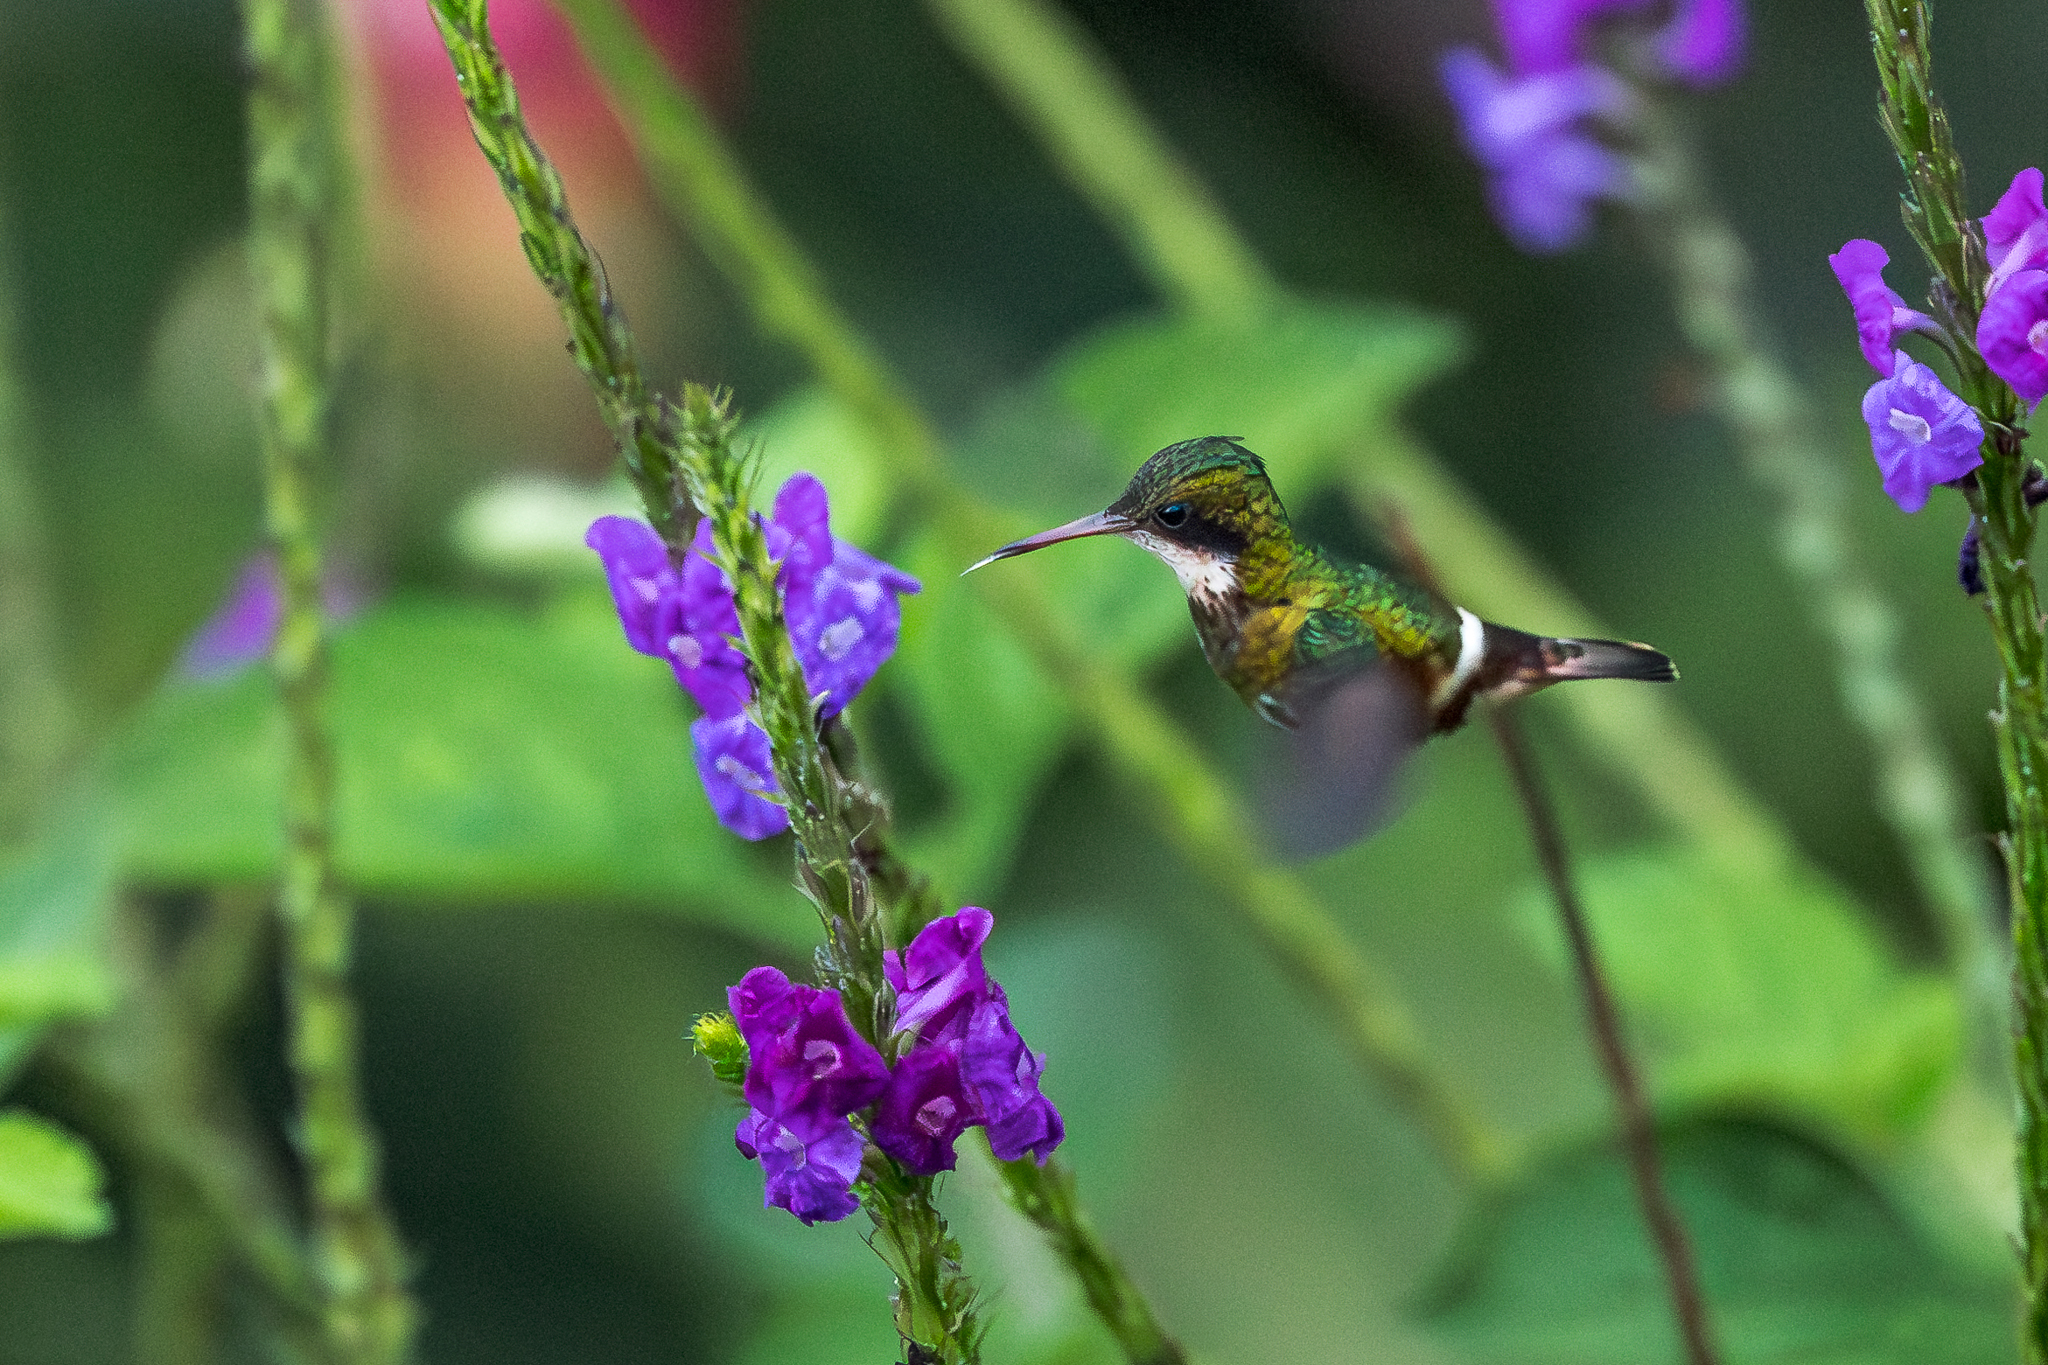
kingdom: Animalia
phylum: Chordata
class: Aves
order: Apodiformes
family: Trochilidae
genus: Lophornis
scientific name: Lophornis helenae
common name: Black-crested coquette
